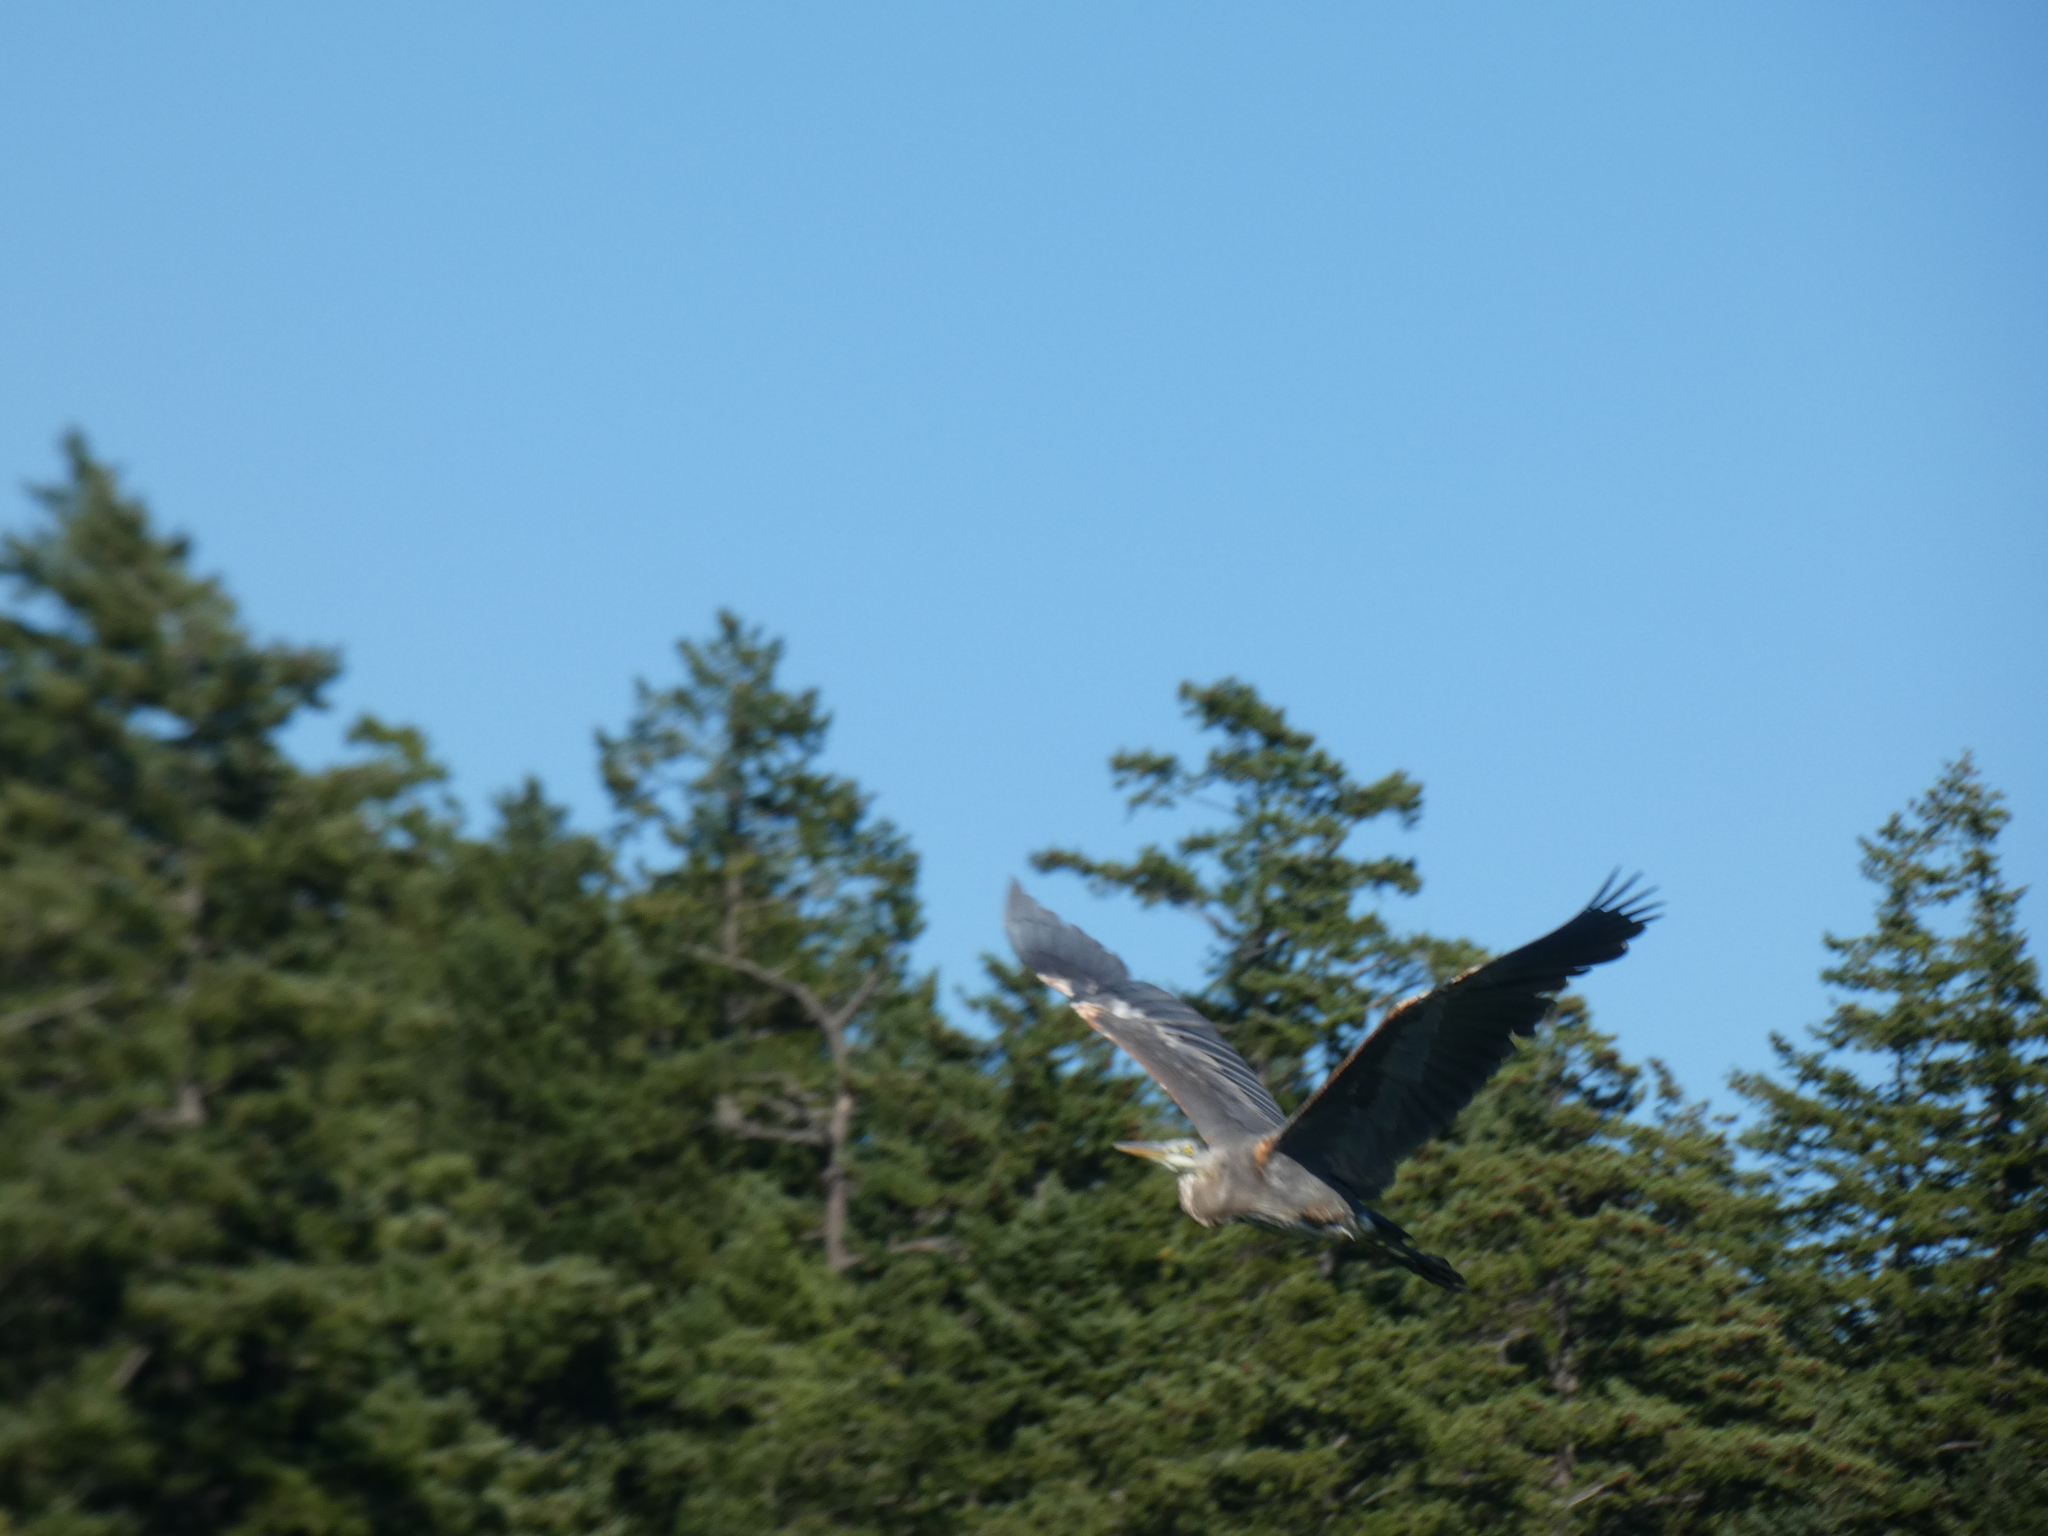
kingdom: Animalia
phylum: Chordata
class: Aves
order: Pelecaniformes
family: Ardeidae
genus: Ardea
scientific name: Ardea herodias
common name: Great blue heron
